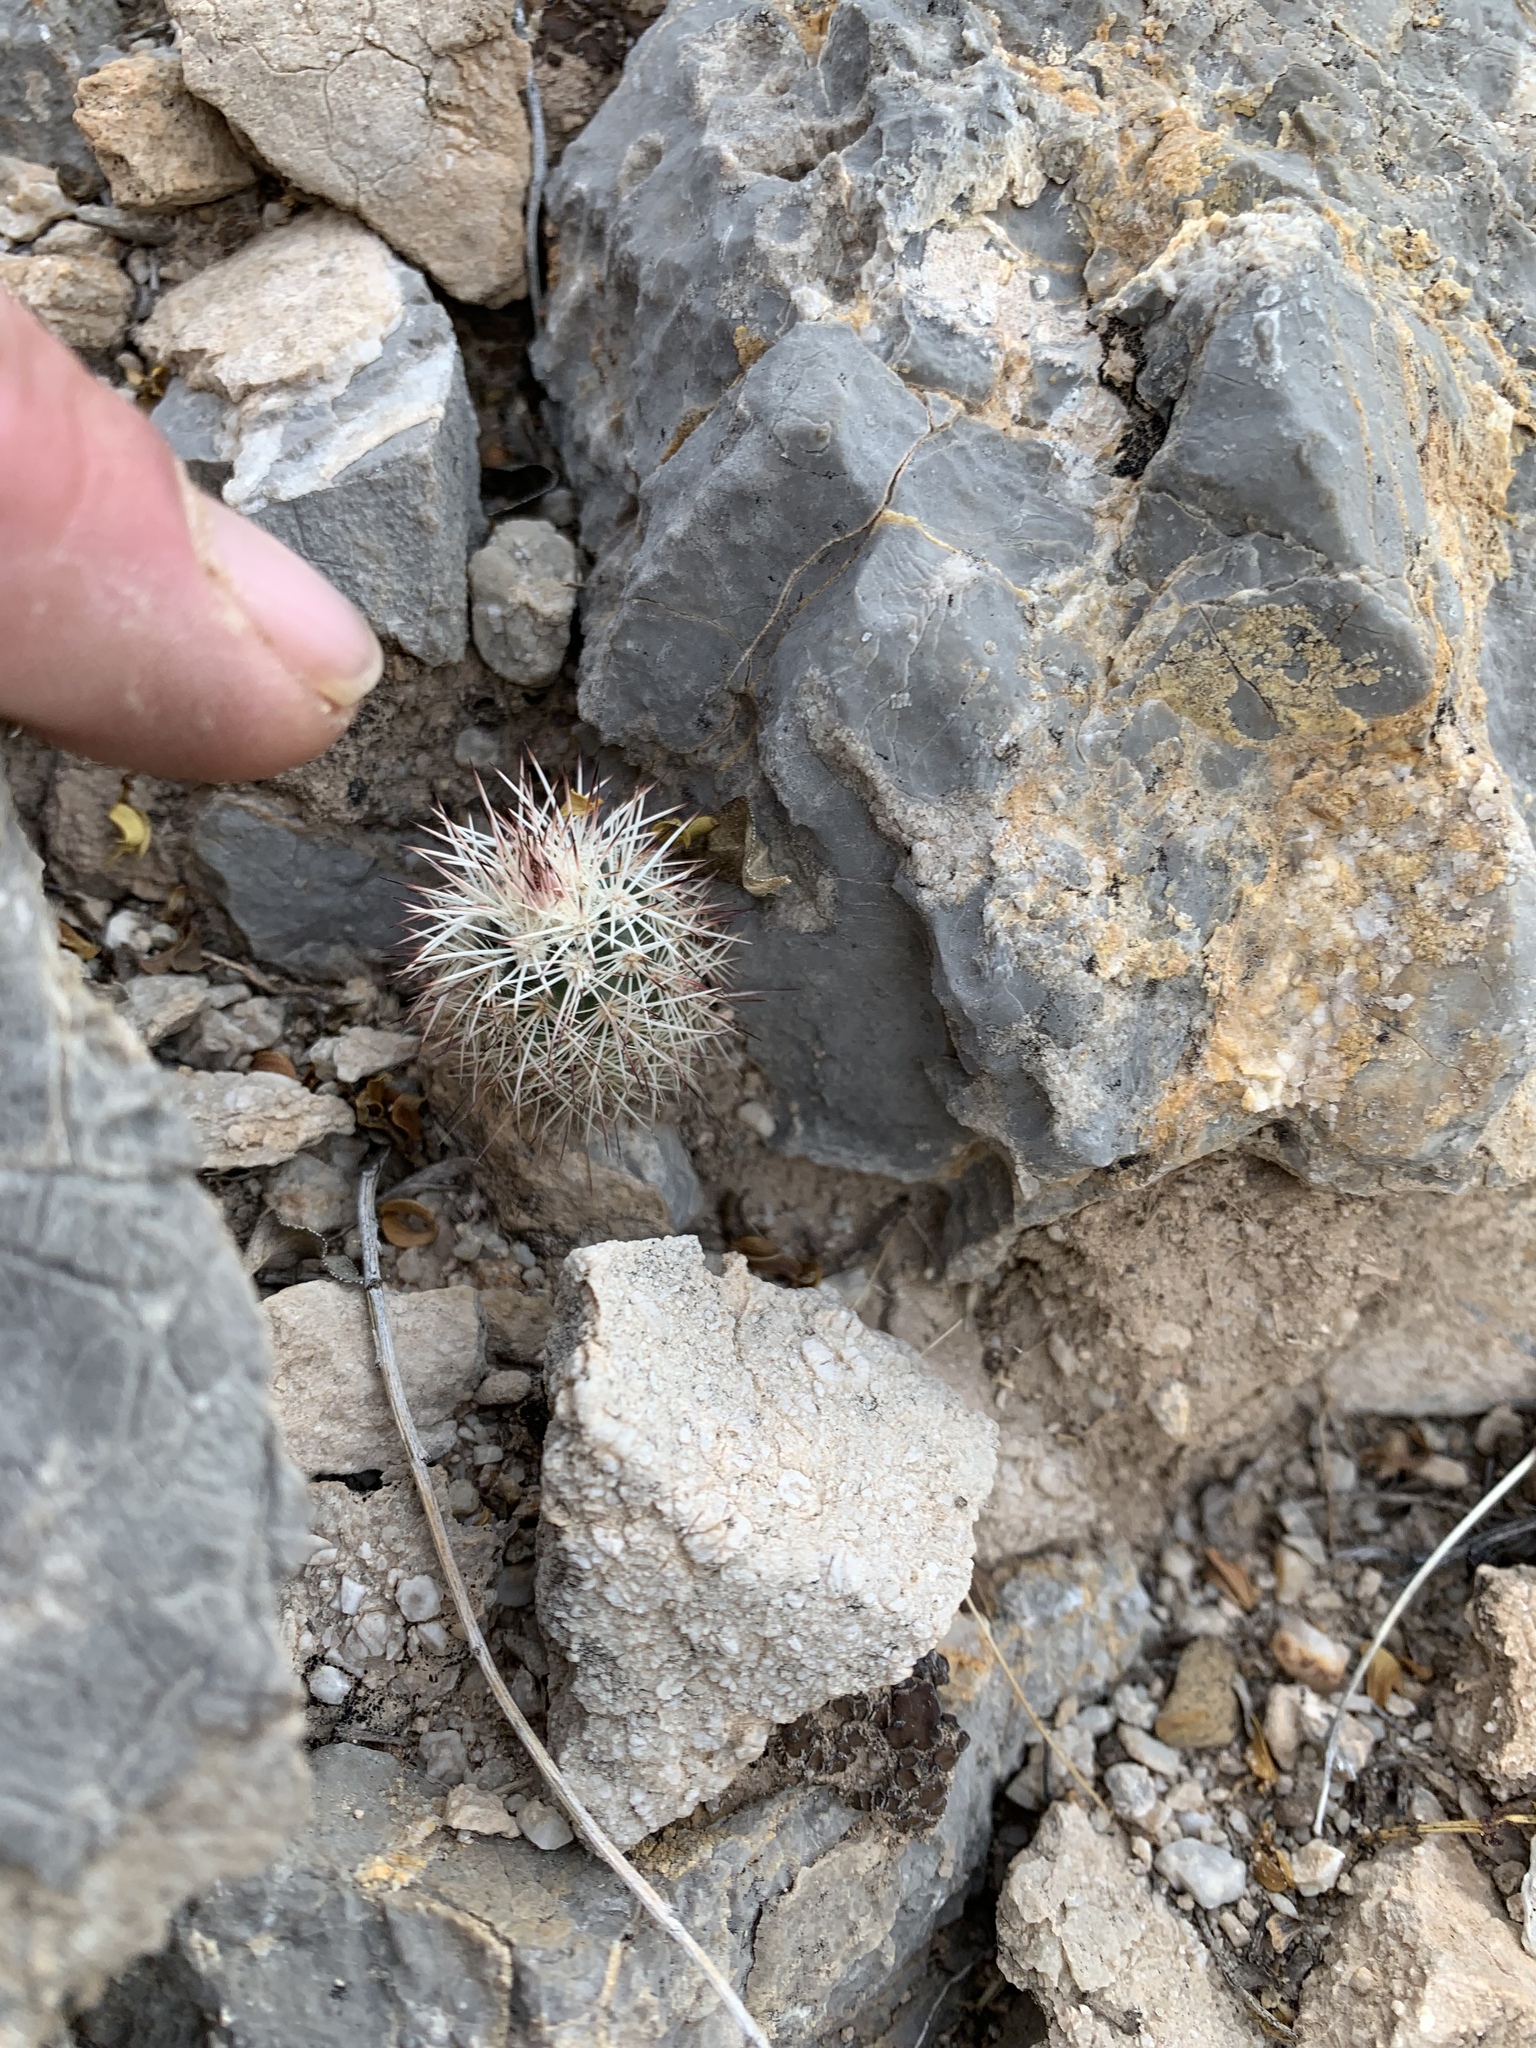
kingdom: Plantae
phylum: Tracheophyta
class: Magnoliopsida
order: Caryophyllales
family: Cactaceae
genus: Echinocereus
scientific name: Echinocereus dasyacanthus
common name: Spiny hedgehog cactus
